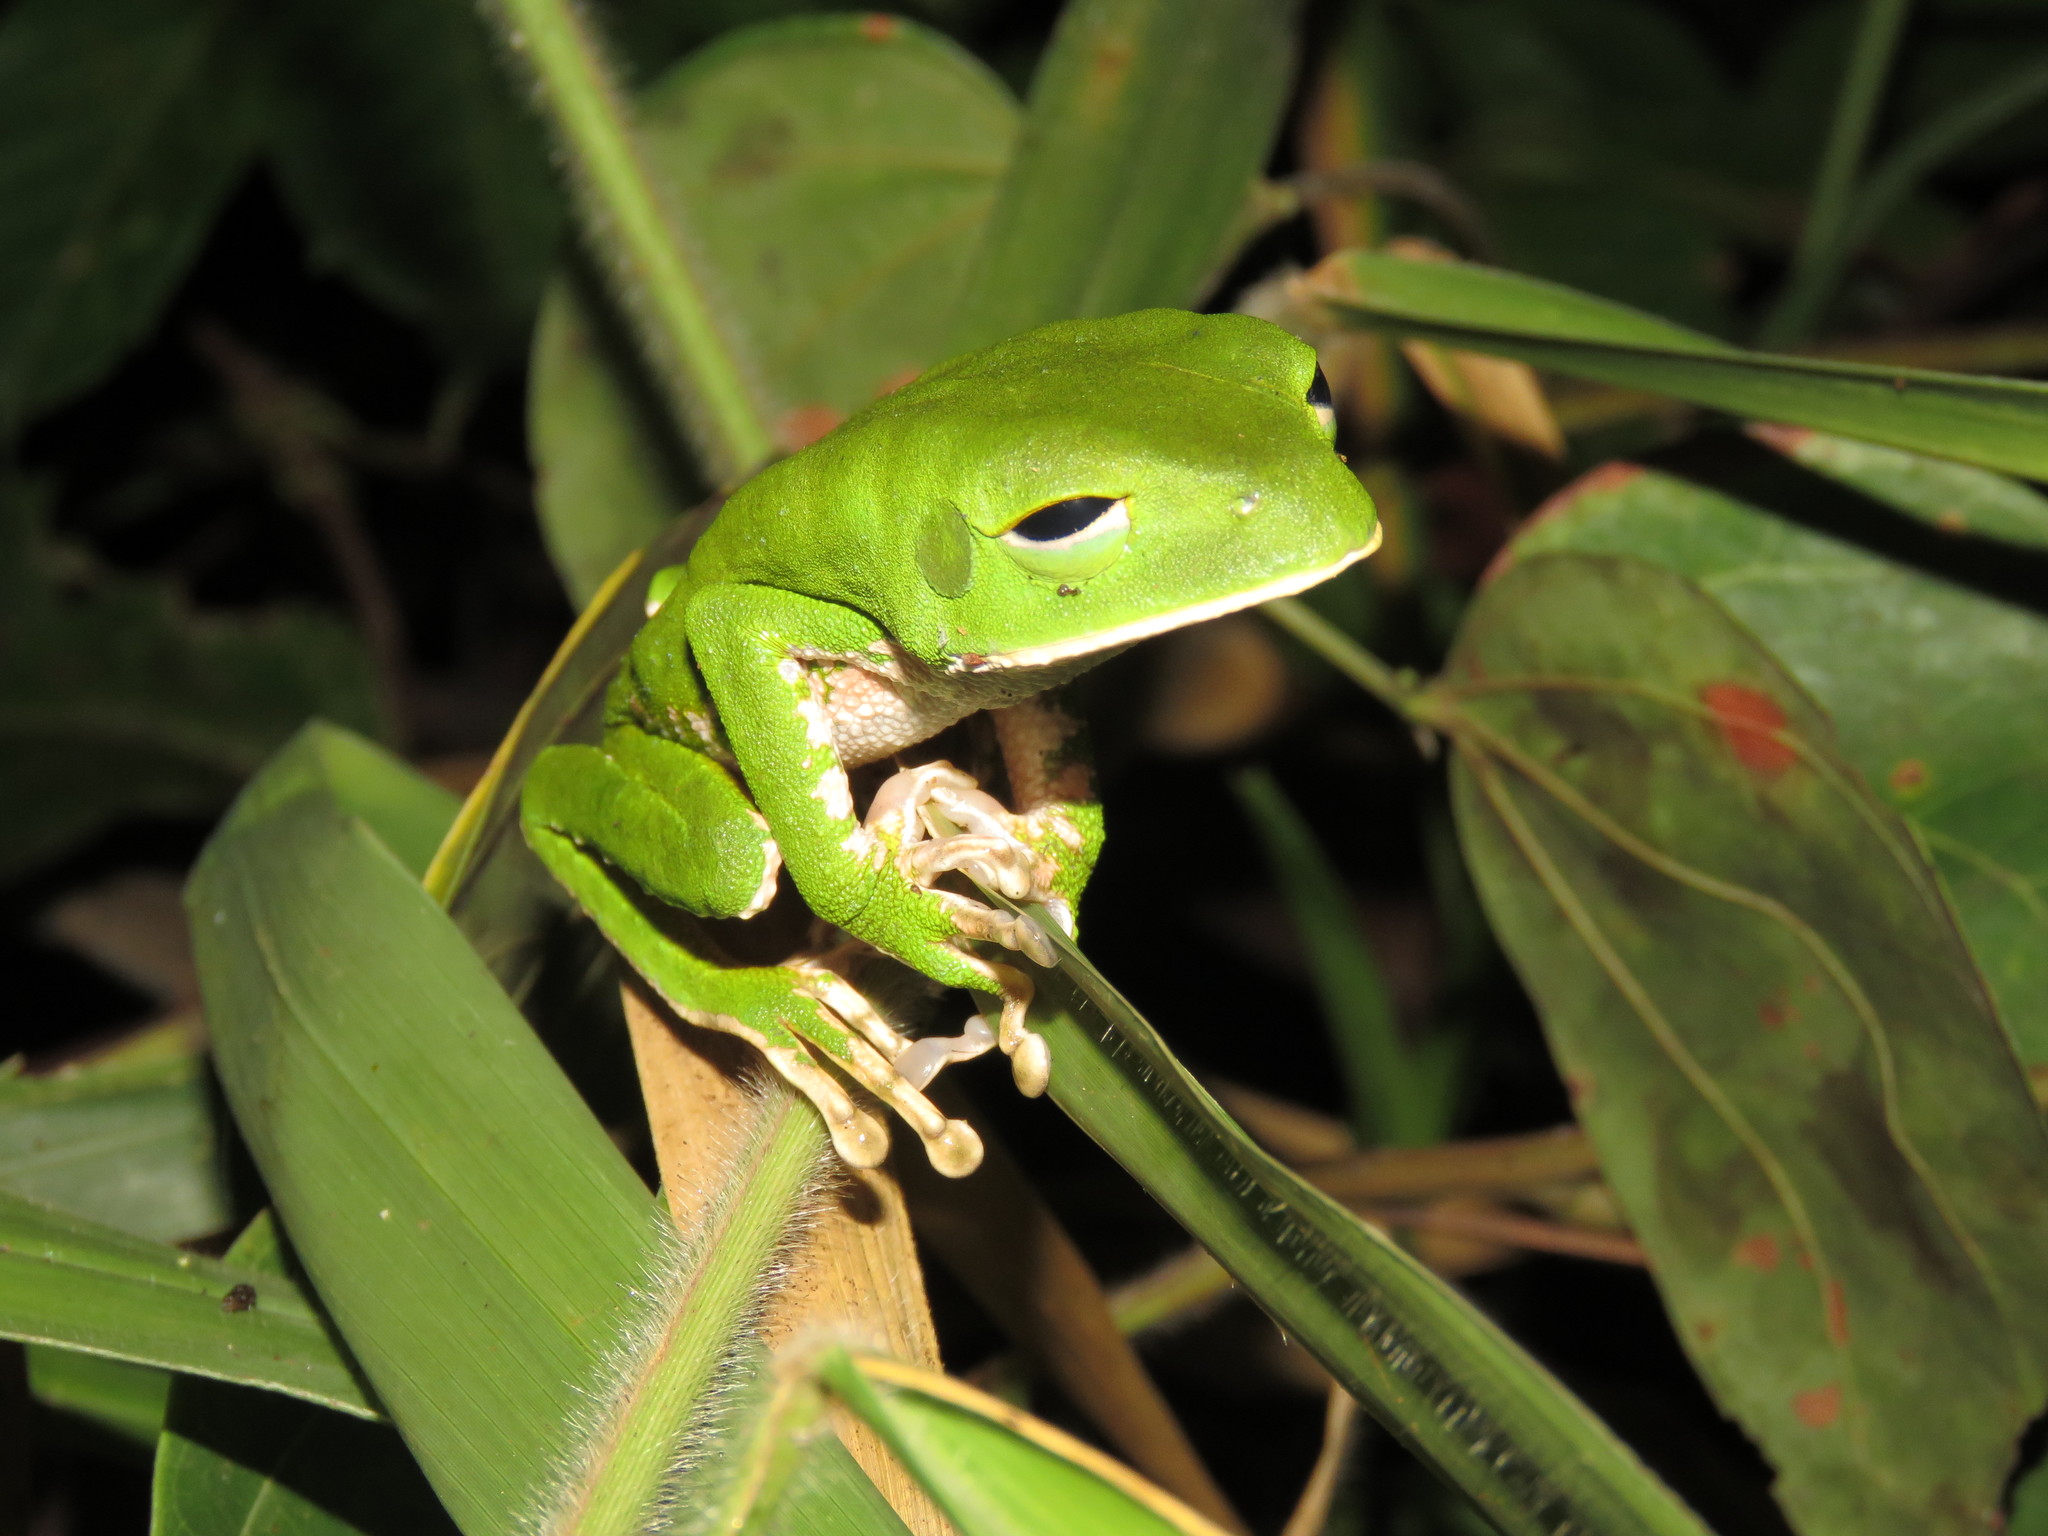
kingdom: Animalia
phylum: Chordata
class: Amphibia
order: Anura
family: Phyllomedusidae
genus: Phyllomedusa
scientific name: Phyllomedusa camba
